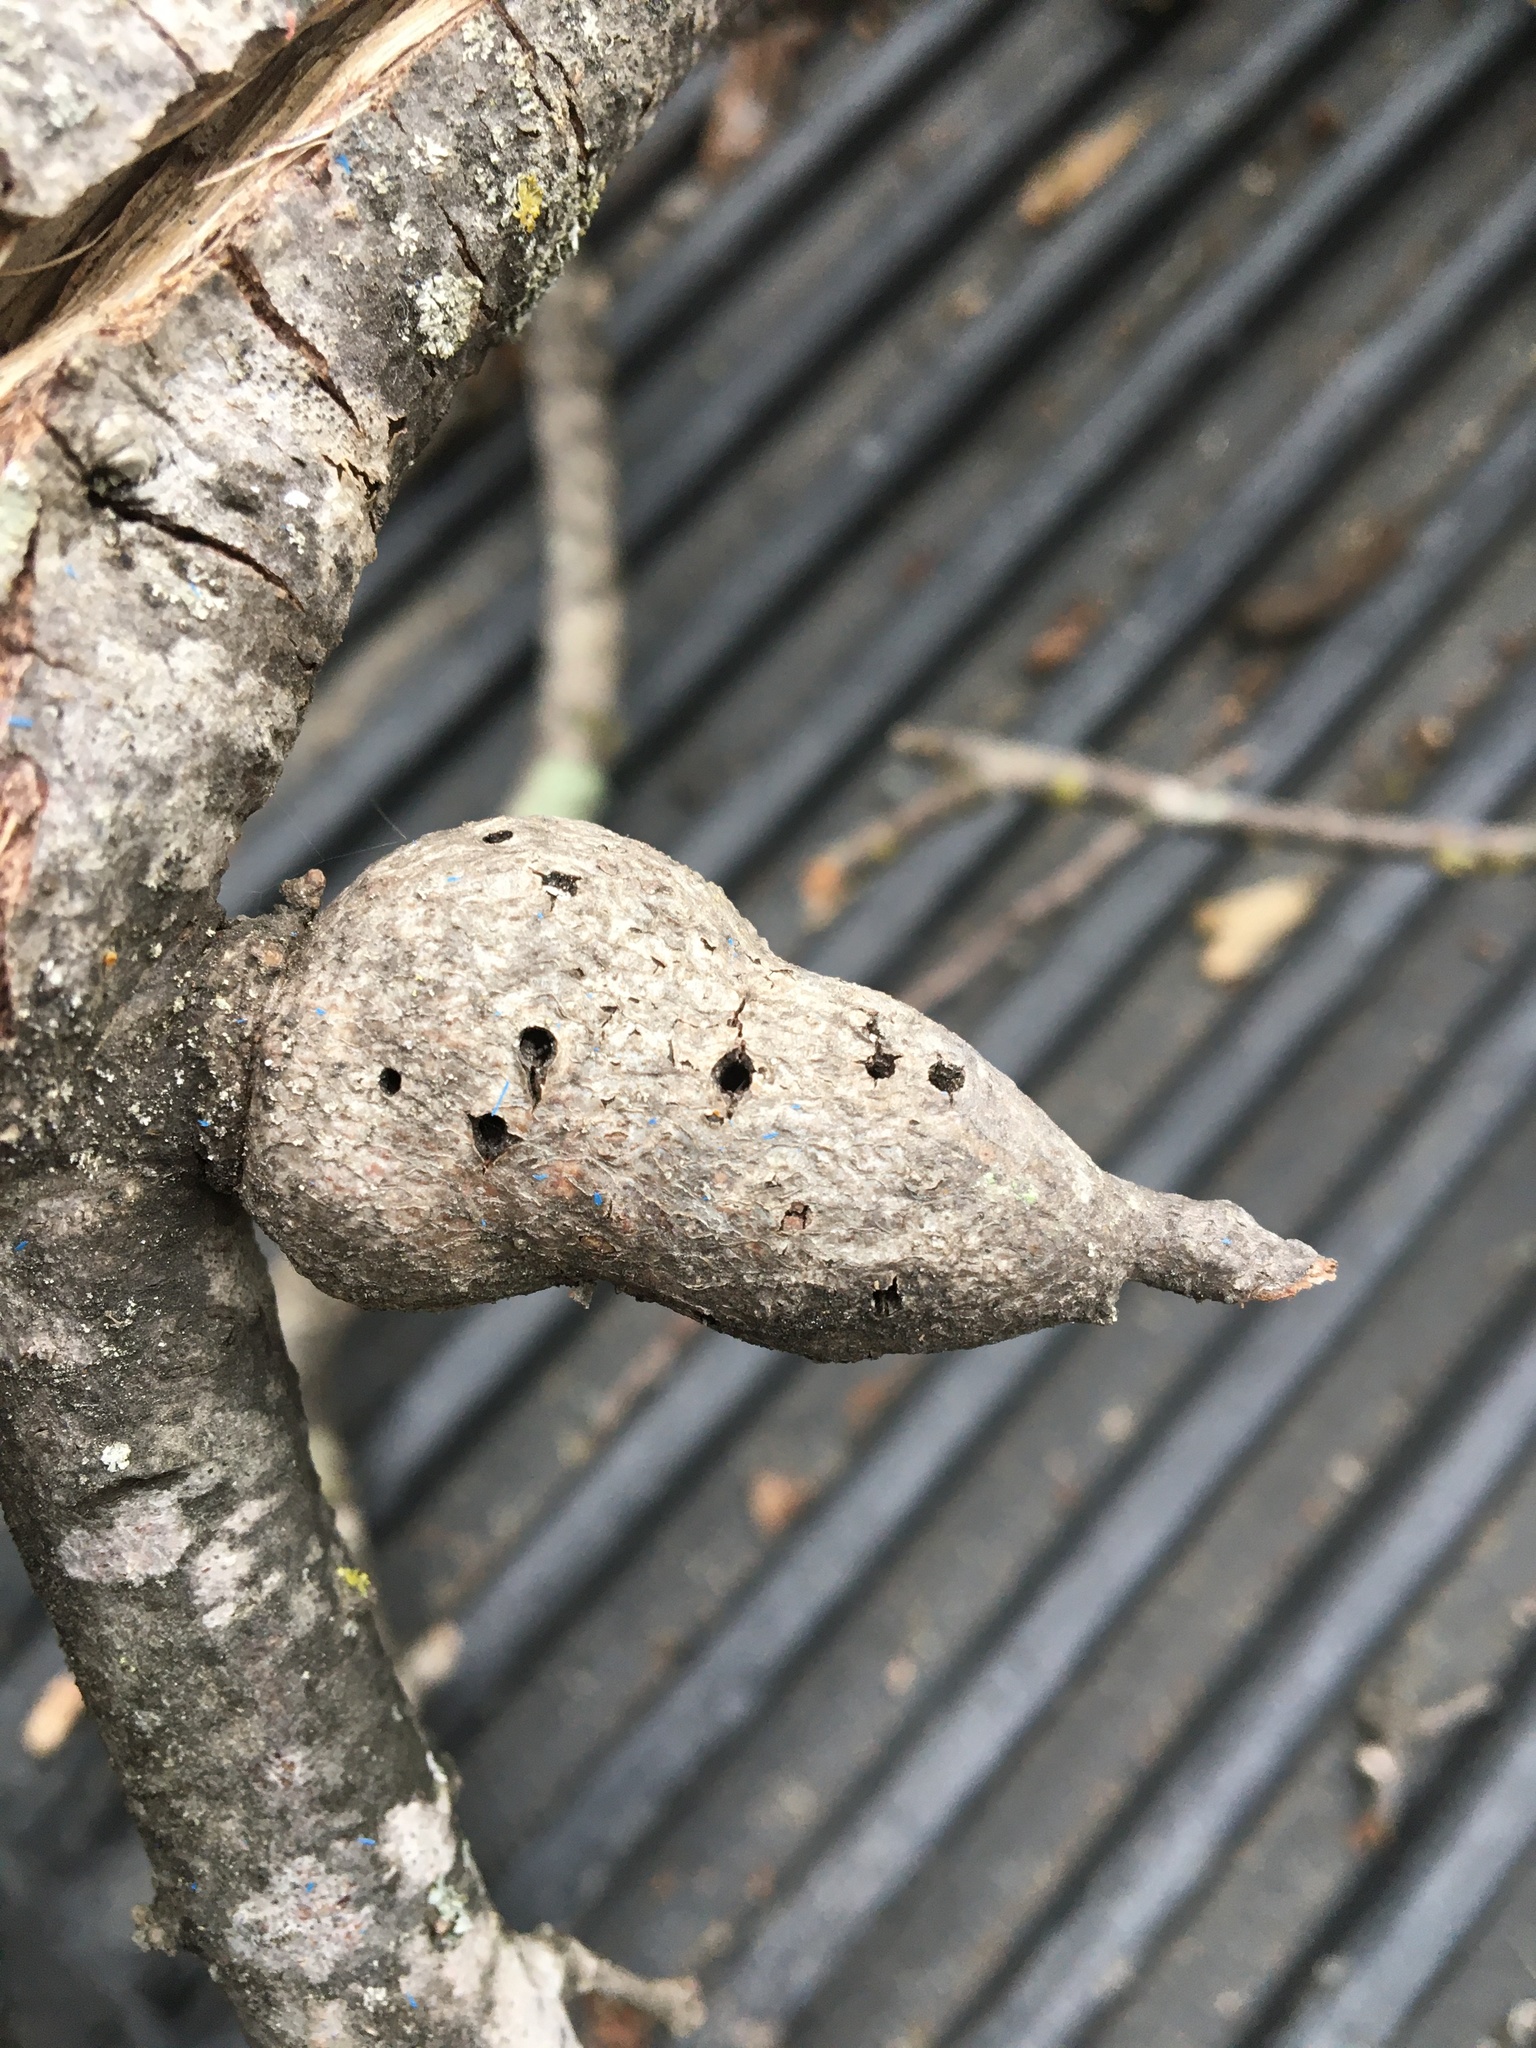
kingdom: Animalia
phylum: Arthropoda
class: Insecta
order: Hymenoptera
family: Cynipidae
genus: Callirhytis
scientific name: Callirhytis
